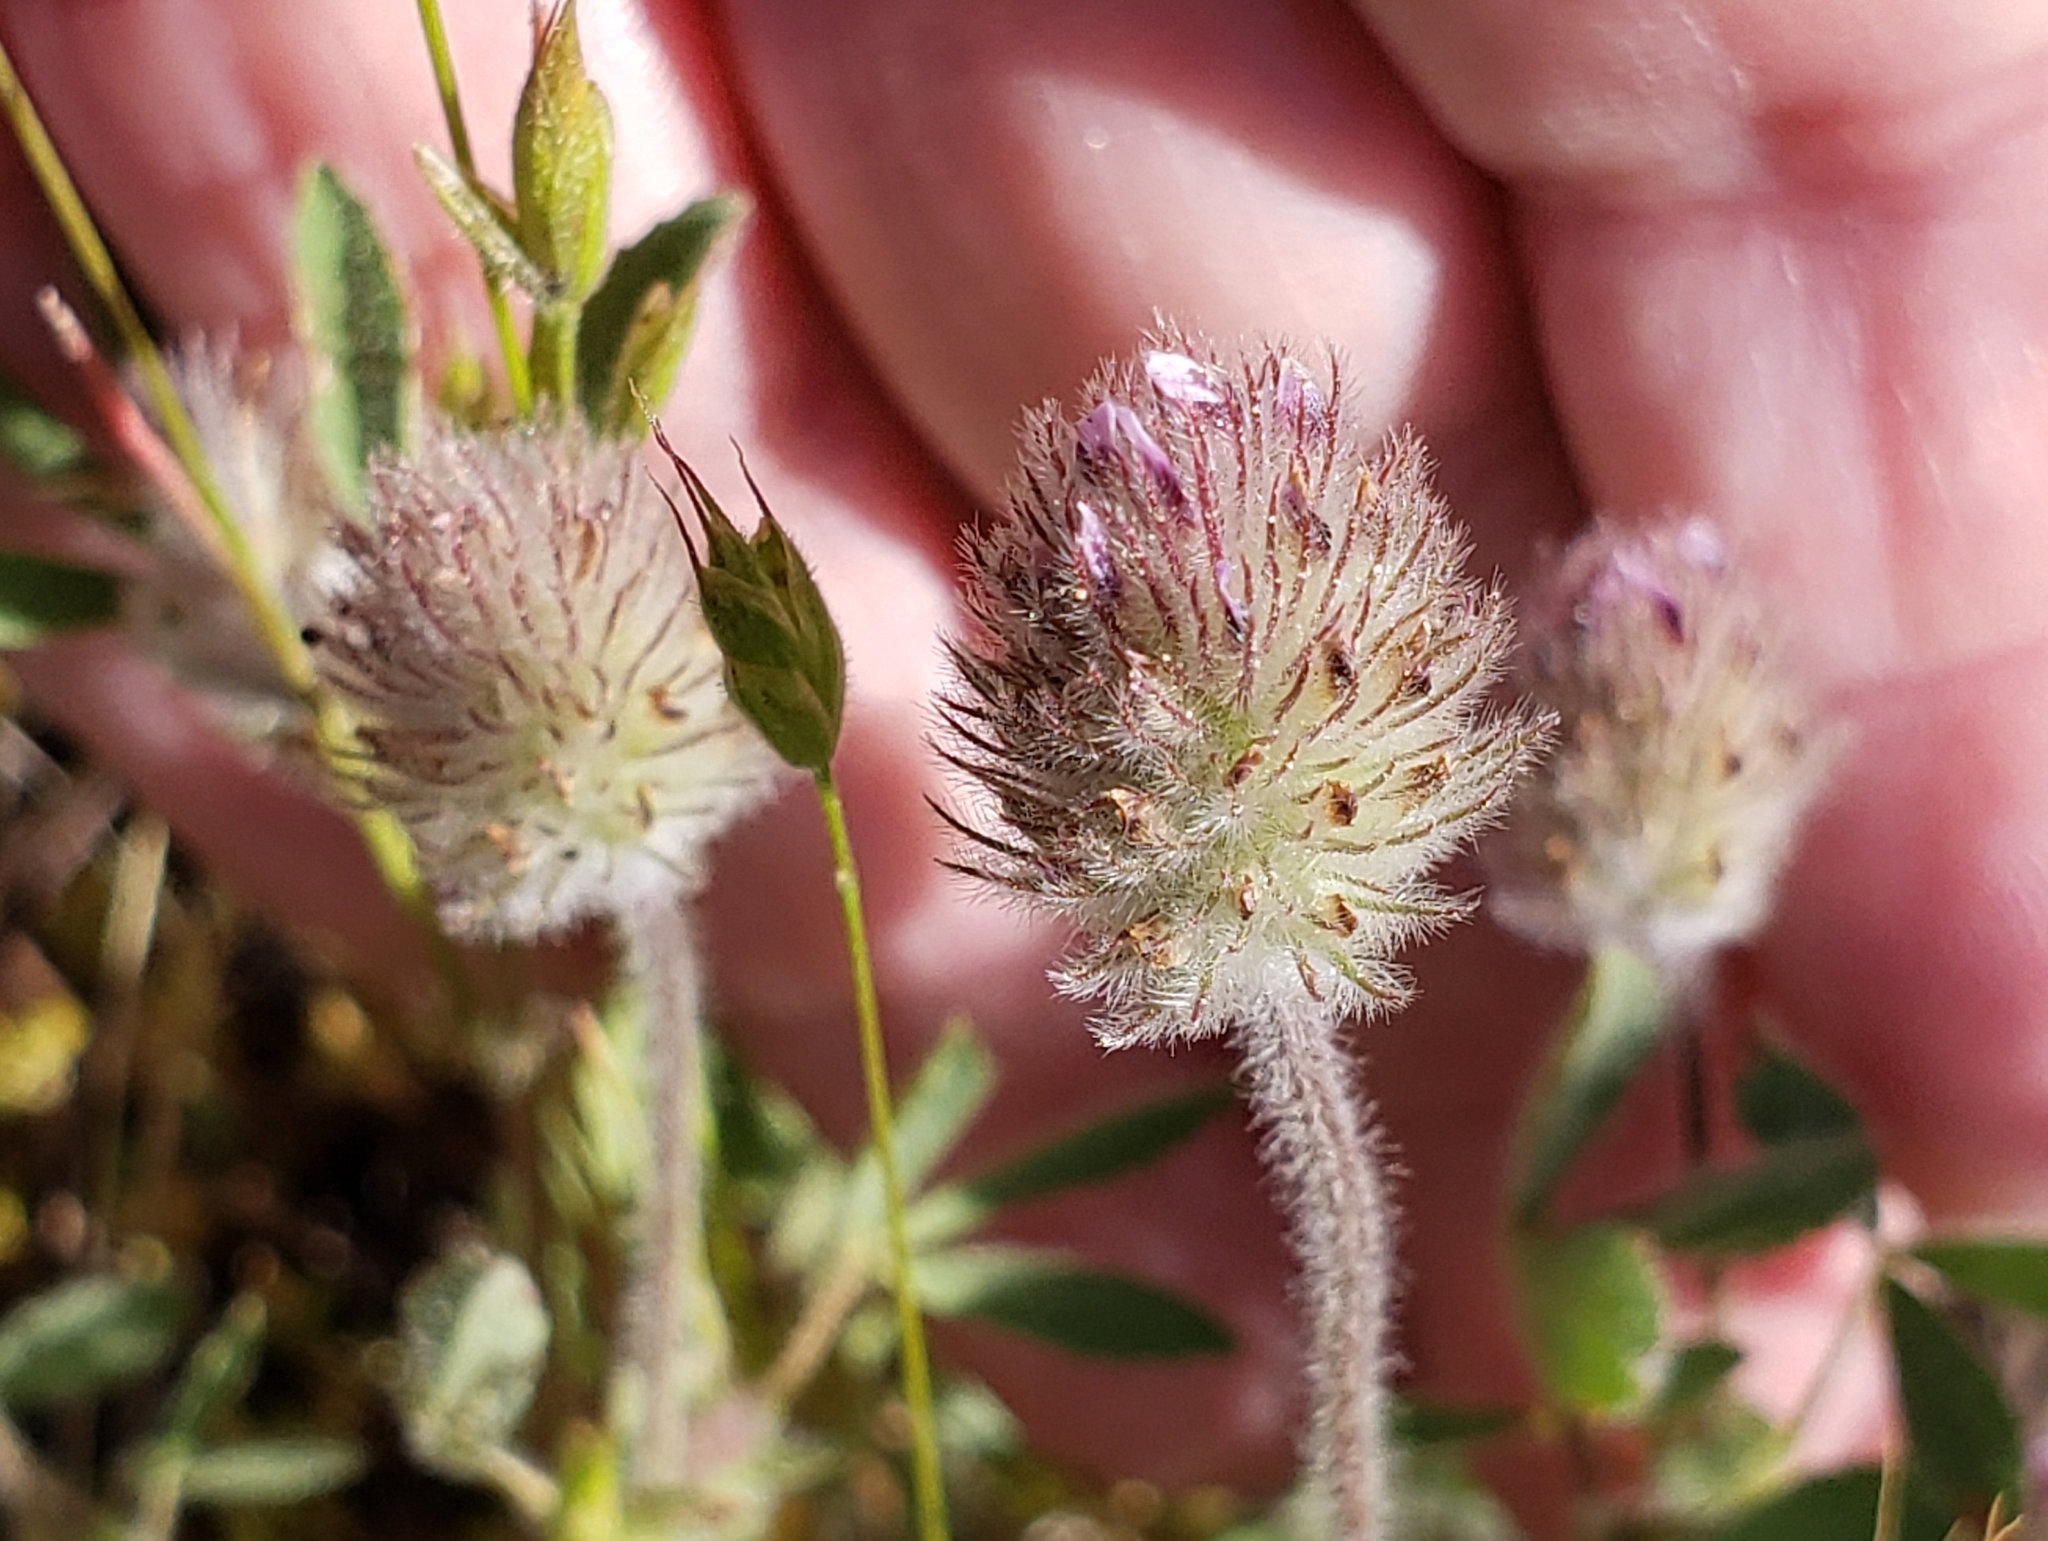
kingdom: Plantae
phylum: Tracheophyta
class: Magnoliopsida
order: Fabales
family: Fabaceae
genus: Trifolium
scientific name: Trifolium albopurpureum
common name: Rancheria clover
